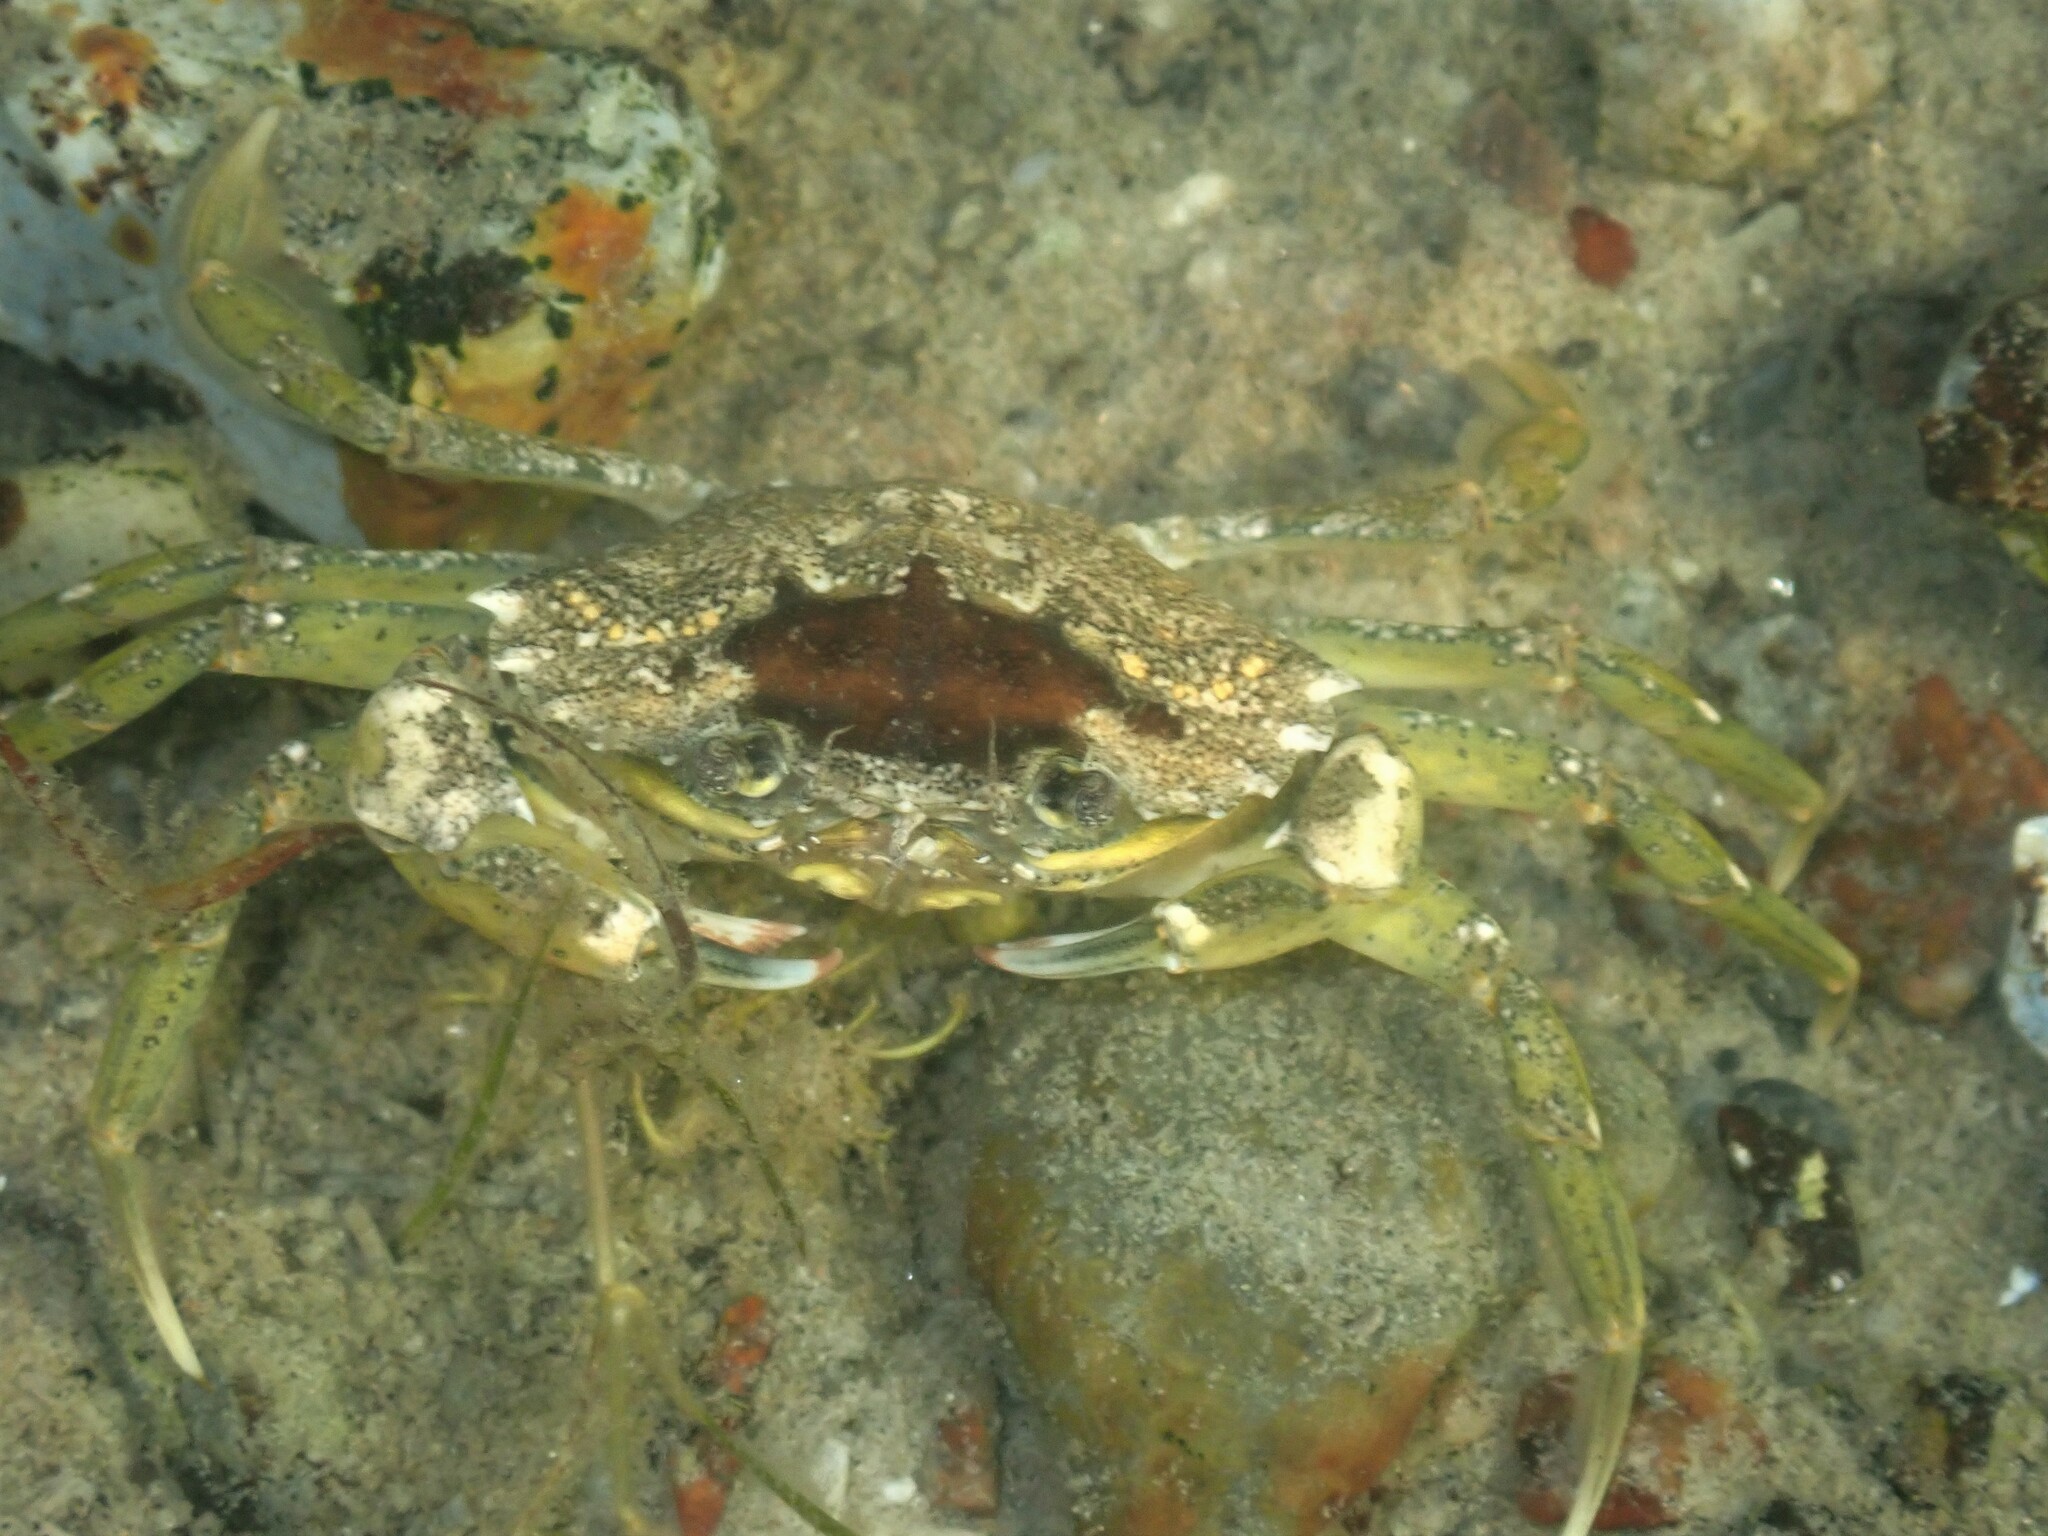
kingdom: Animalia
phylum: Arthropoda
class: Malacostraca
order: Decapoda
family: Carcinidae
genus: Carcinus
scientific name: Carcinus maenas
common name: European green crab
